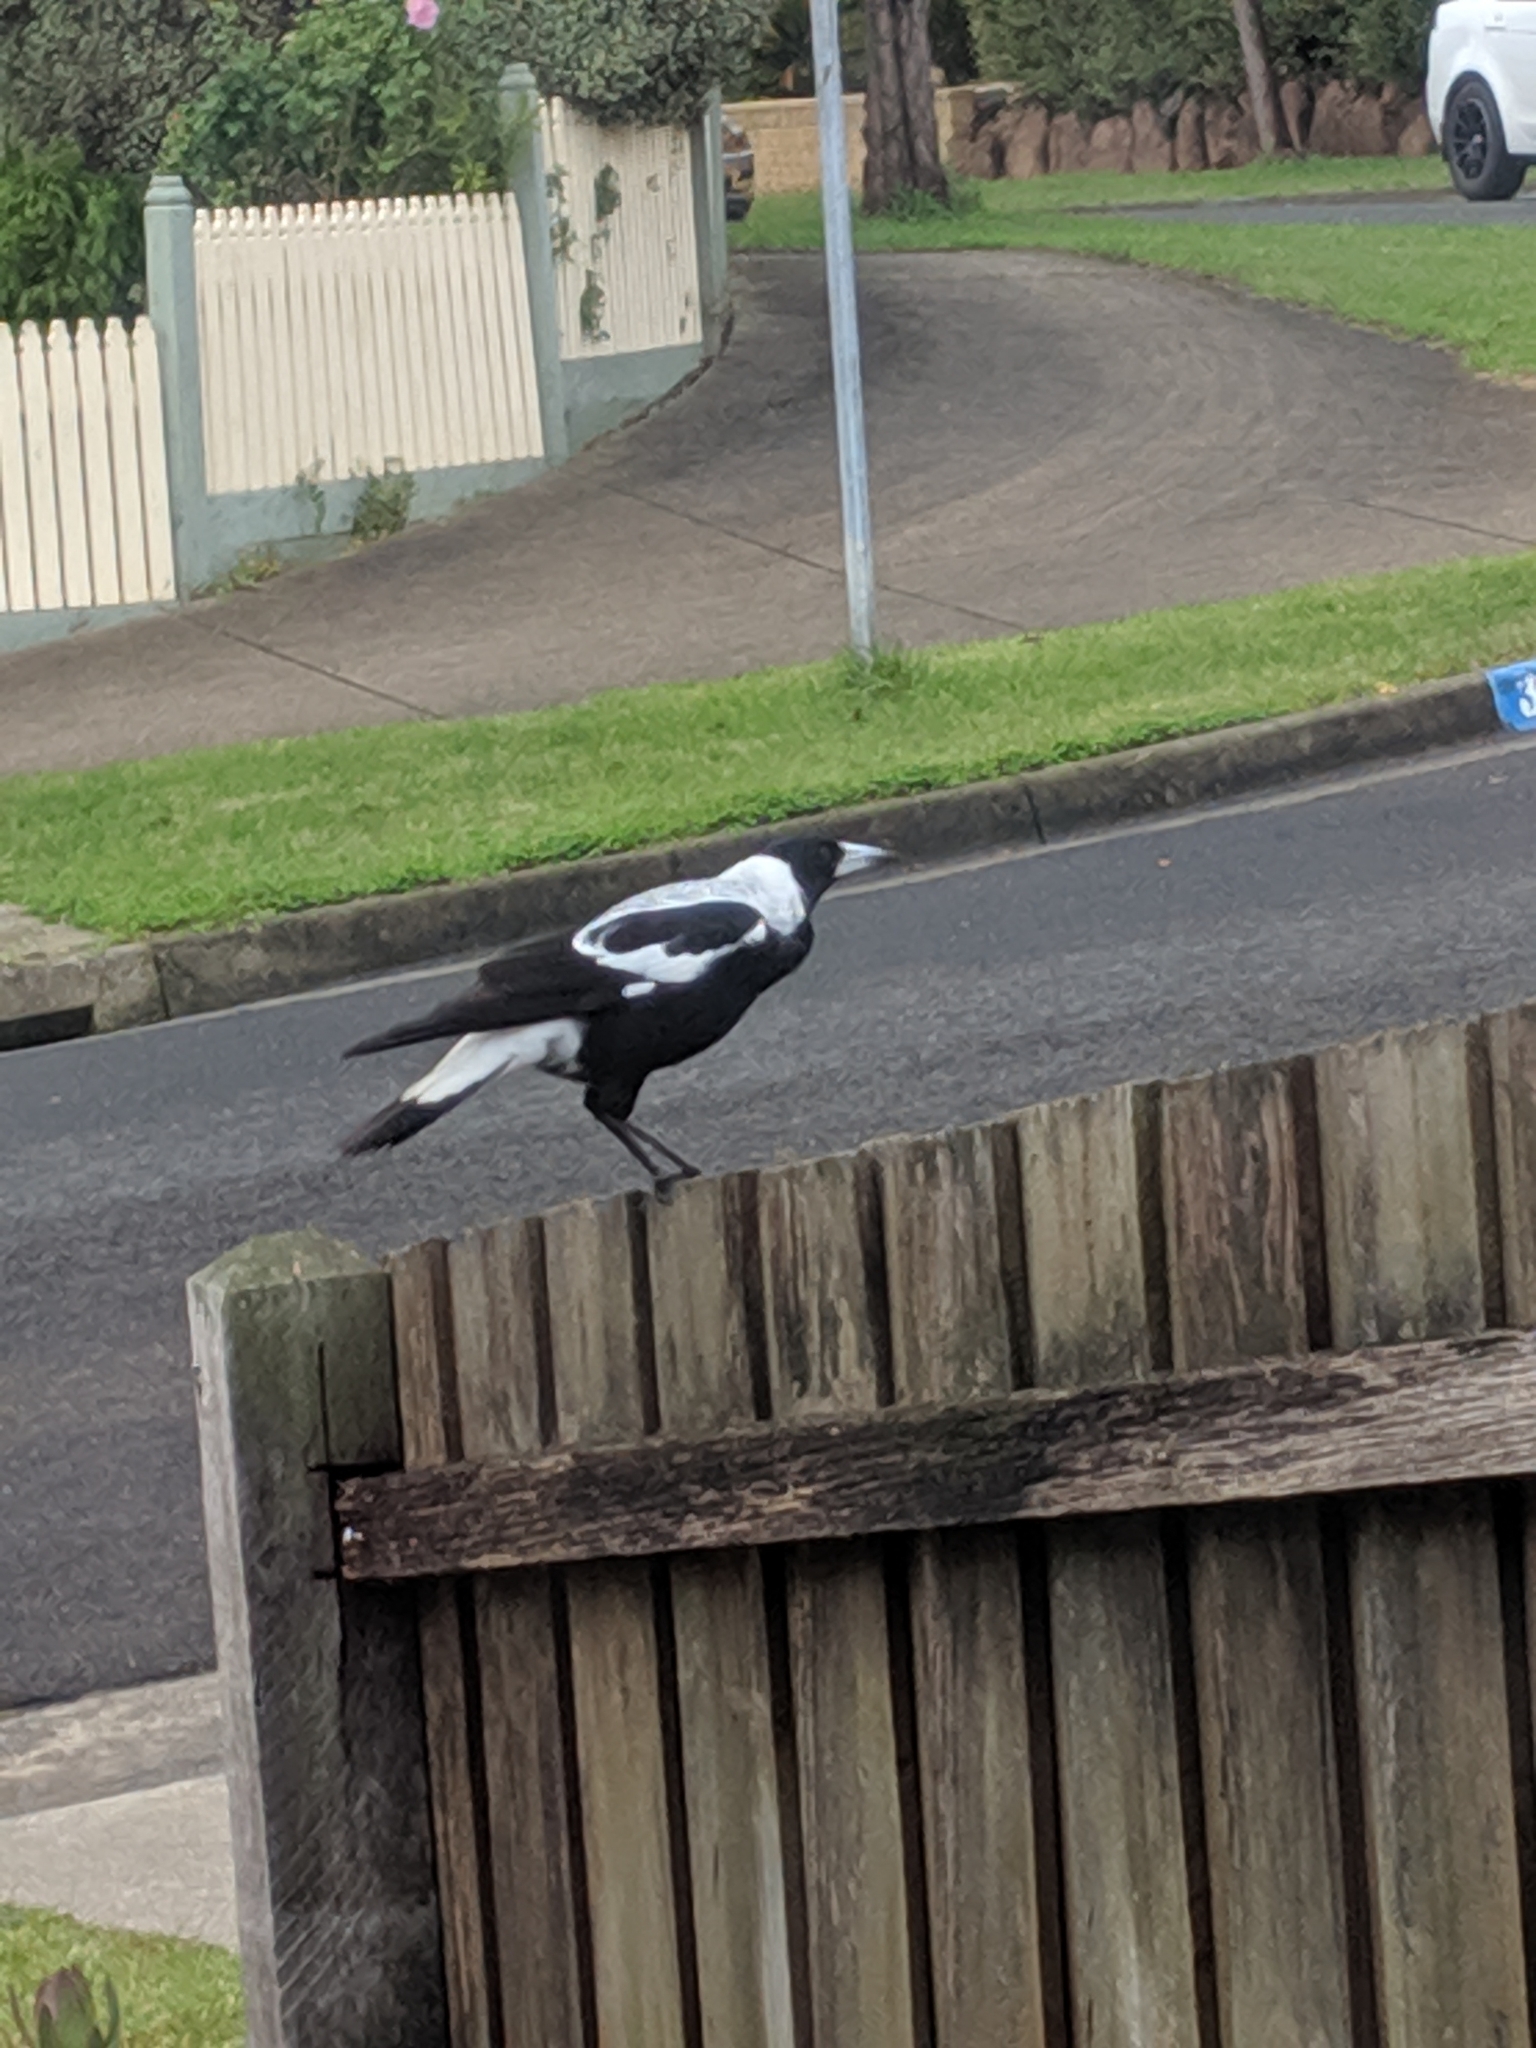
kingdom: Animalia
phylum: Chordata
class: Aves
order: Passeriformes
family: Cracticidae
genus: Gymnorhina
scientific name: Gymnorhina tibicen
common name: Australian magpie
